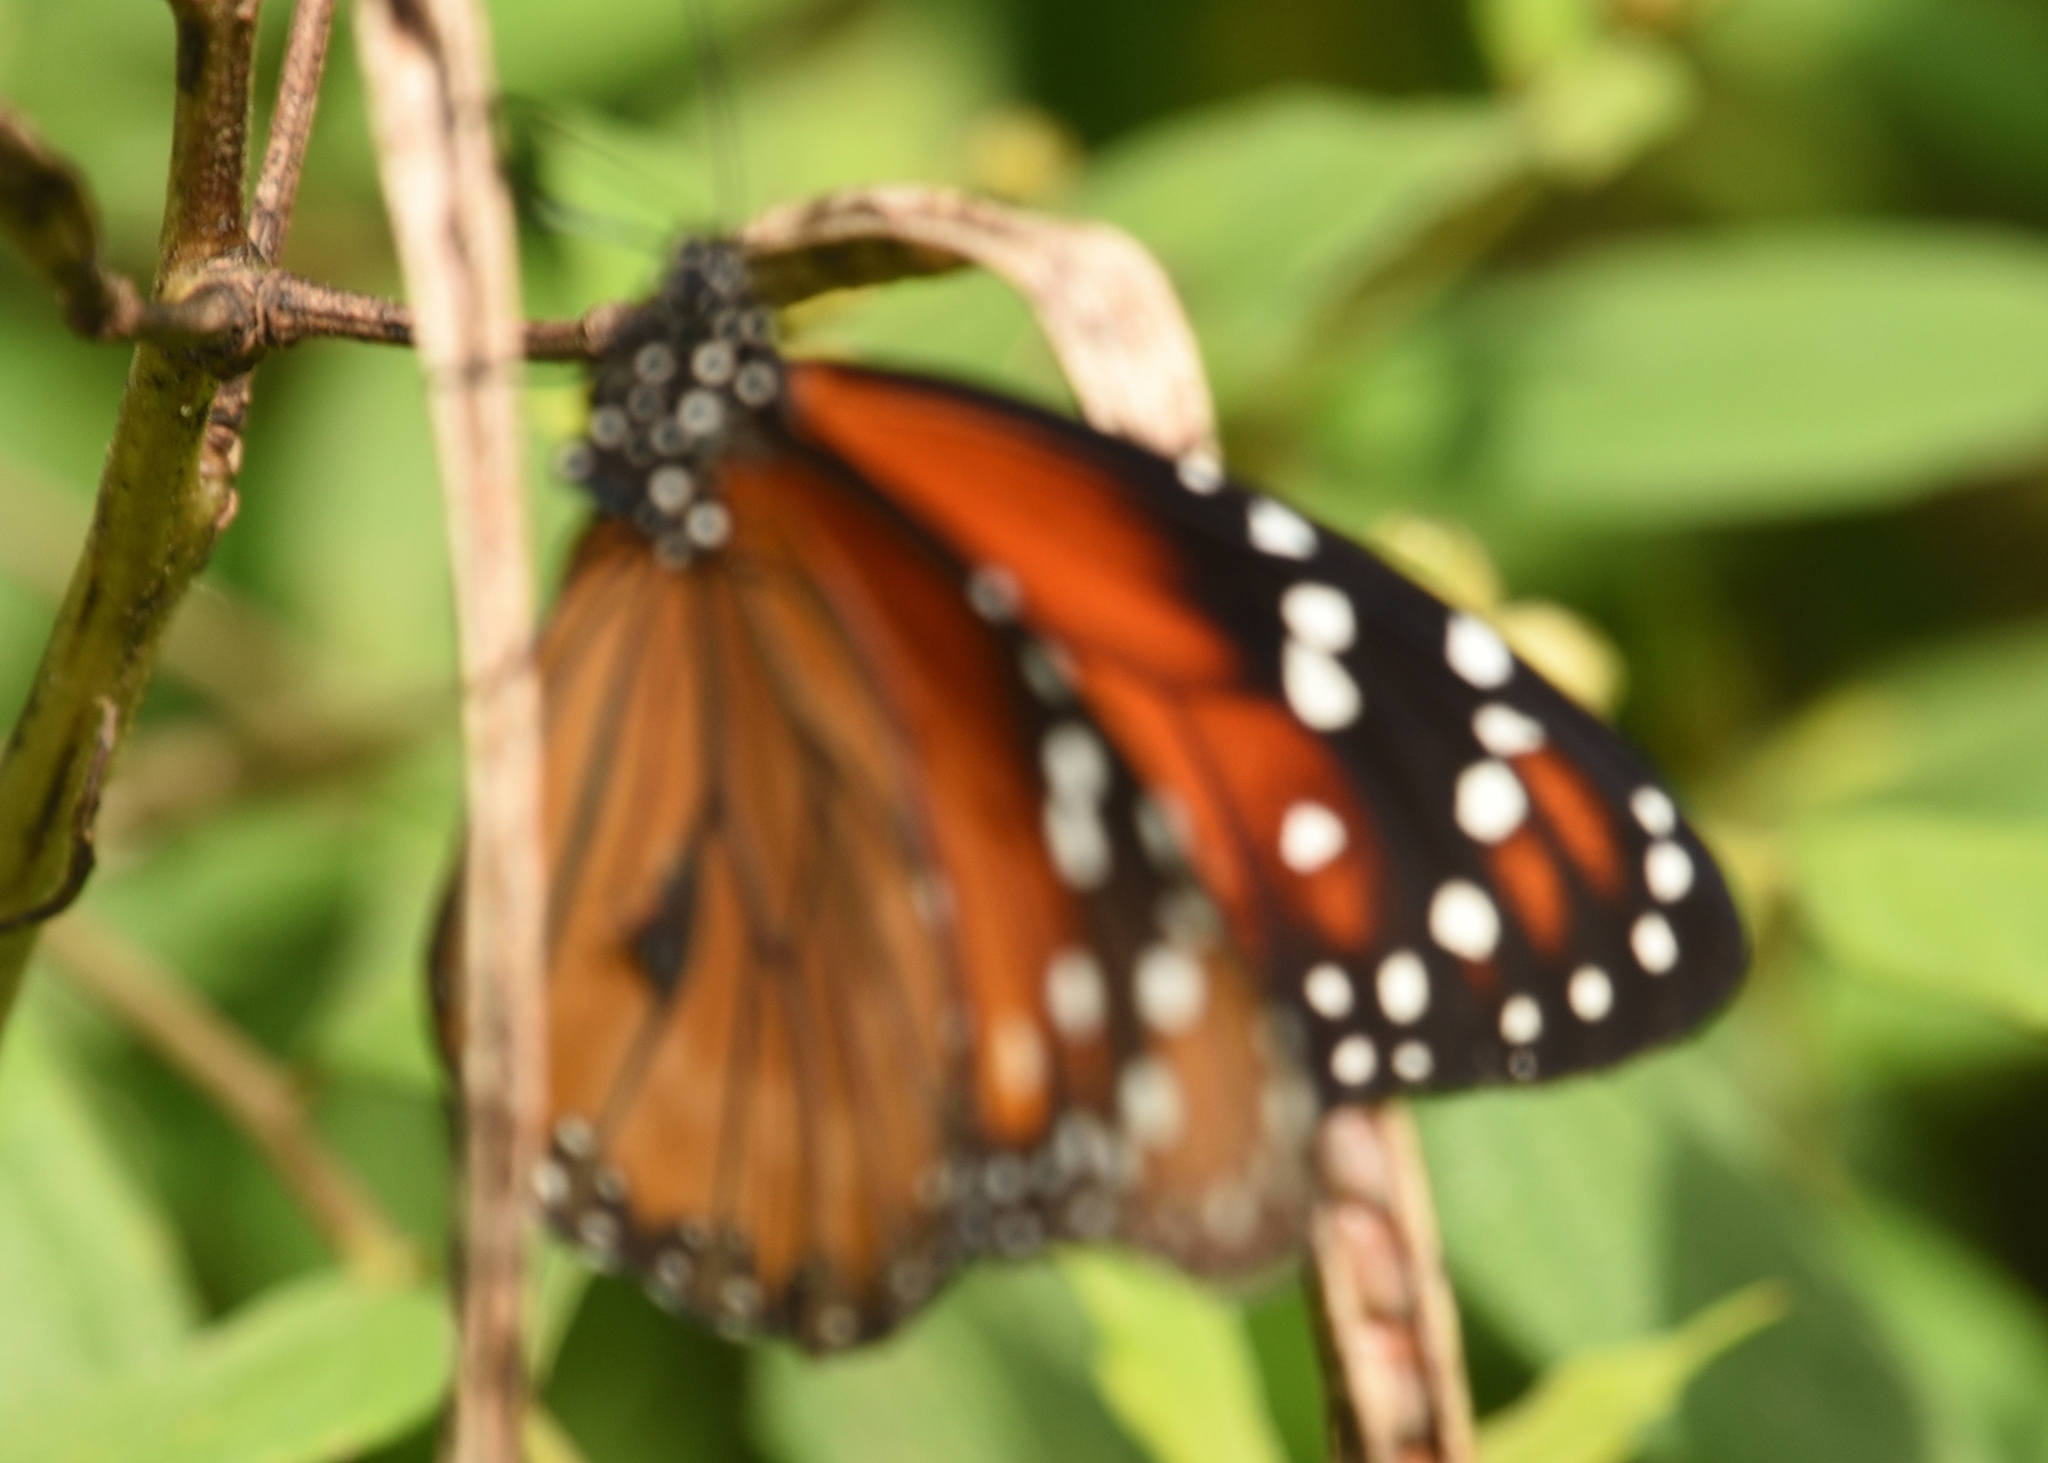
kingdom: Animalia
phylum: Arthropoda
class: Insecta
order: Lepidoptera
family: Nymphalidae
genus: Danaus
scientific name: Danaus eresimus
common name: Soldier
